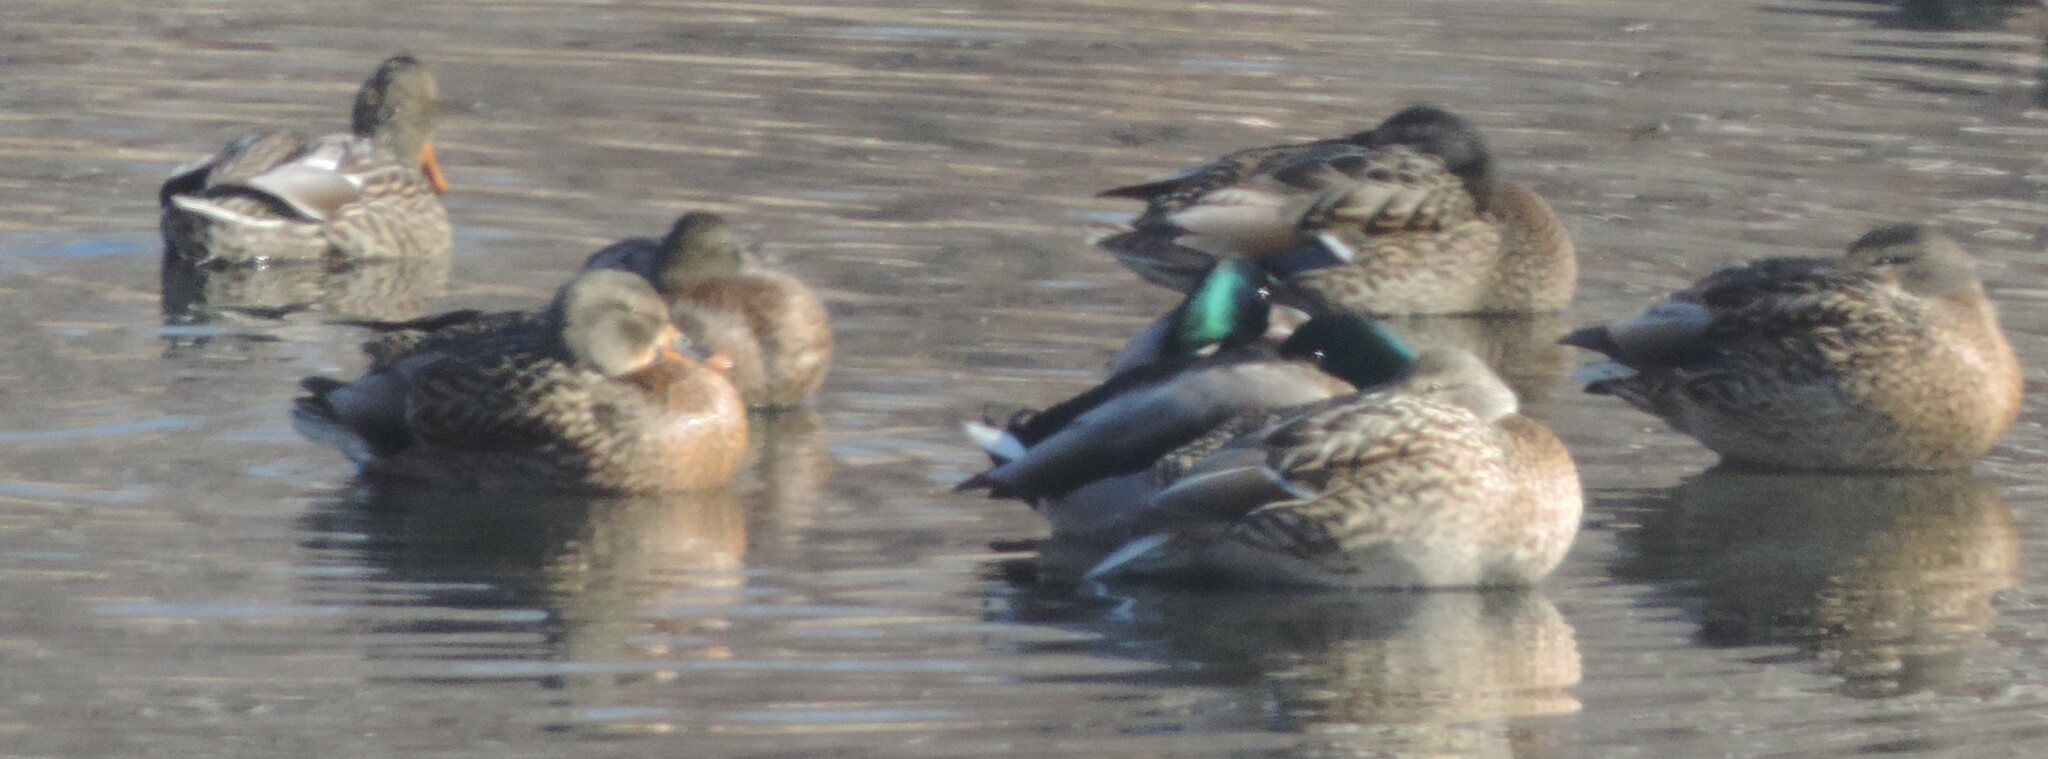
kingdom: Animalia
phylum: Chordata
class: Aves
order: Anseriformes
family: Anatidae
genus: Anas
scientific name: Anas platyrhynchos
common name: Mallard
